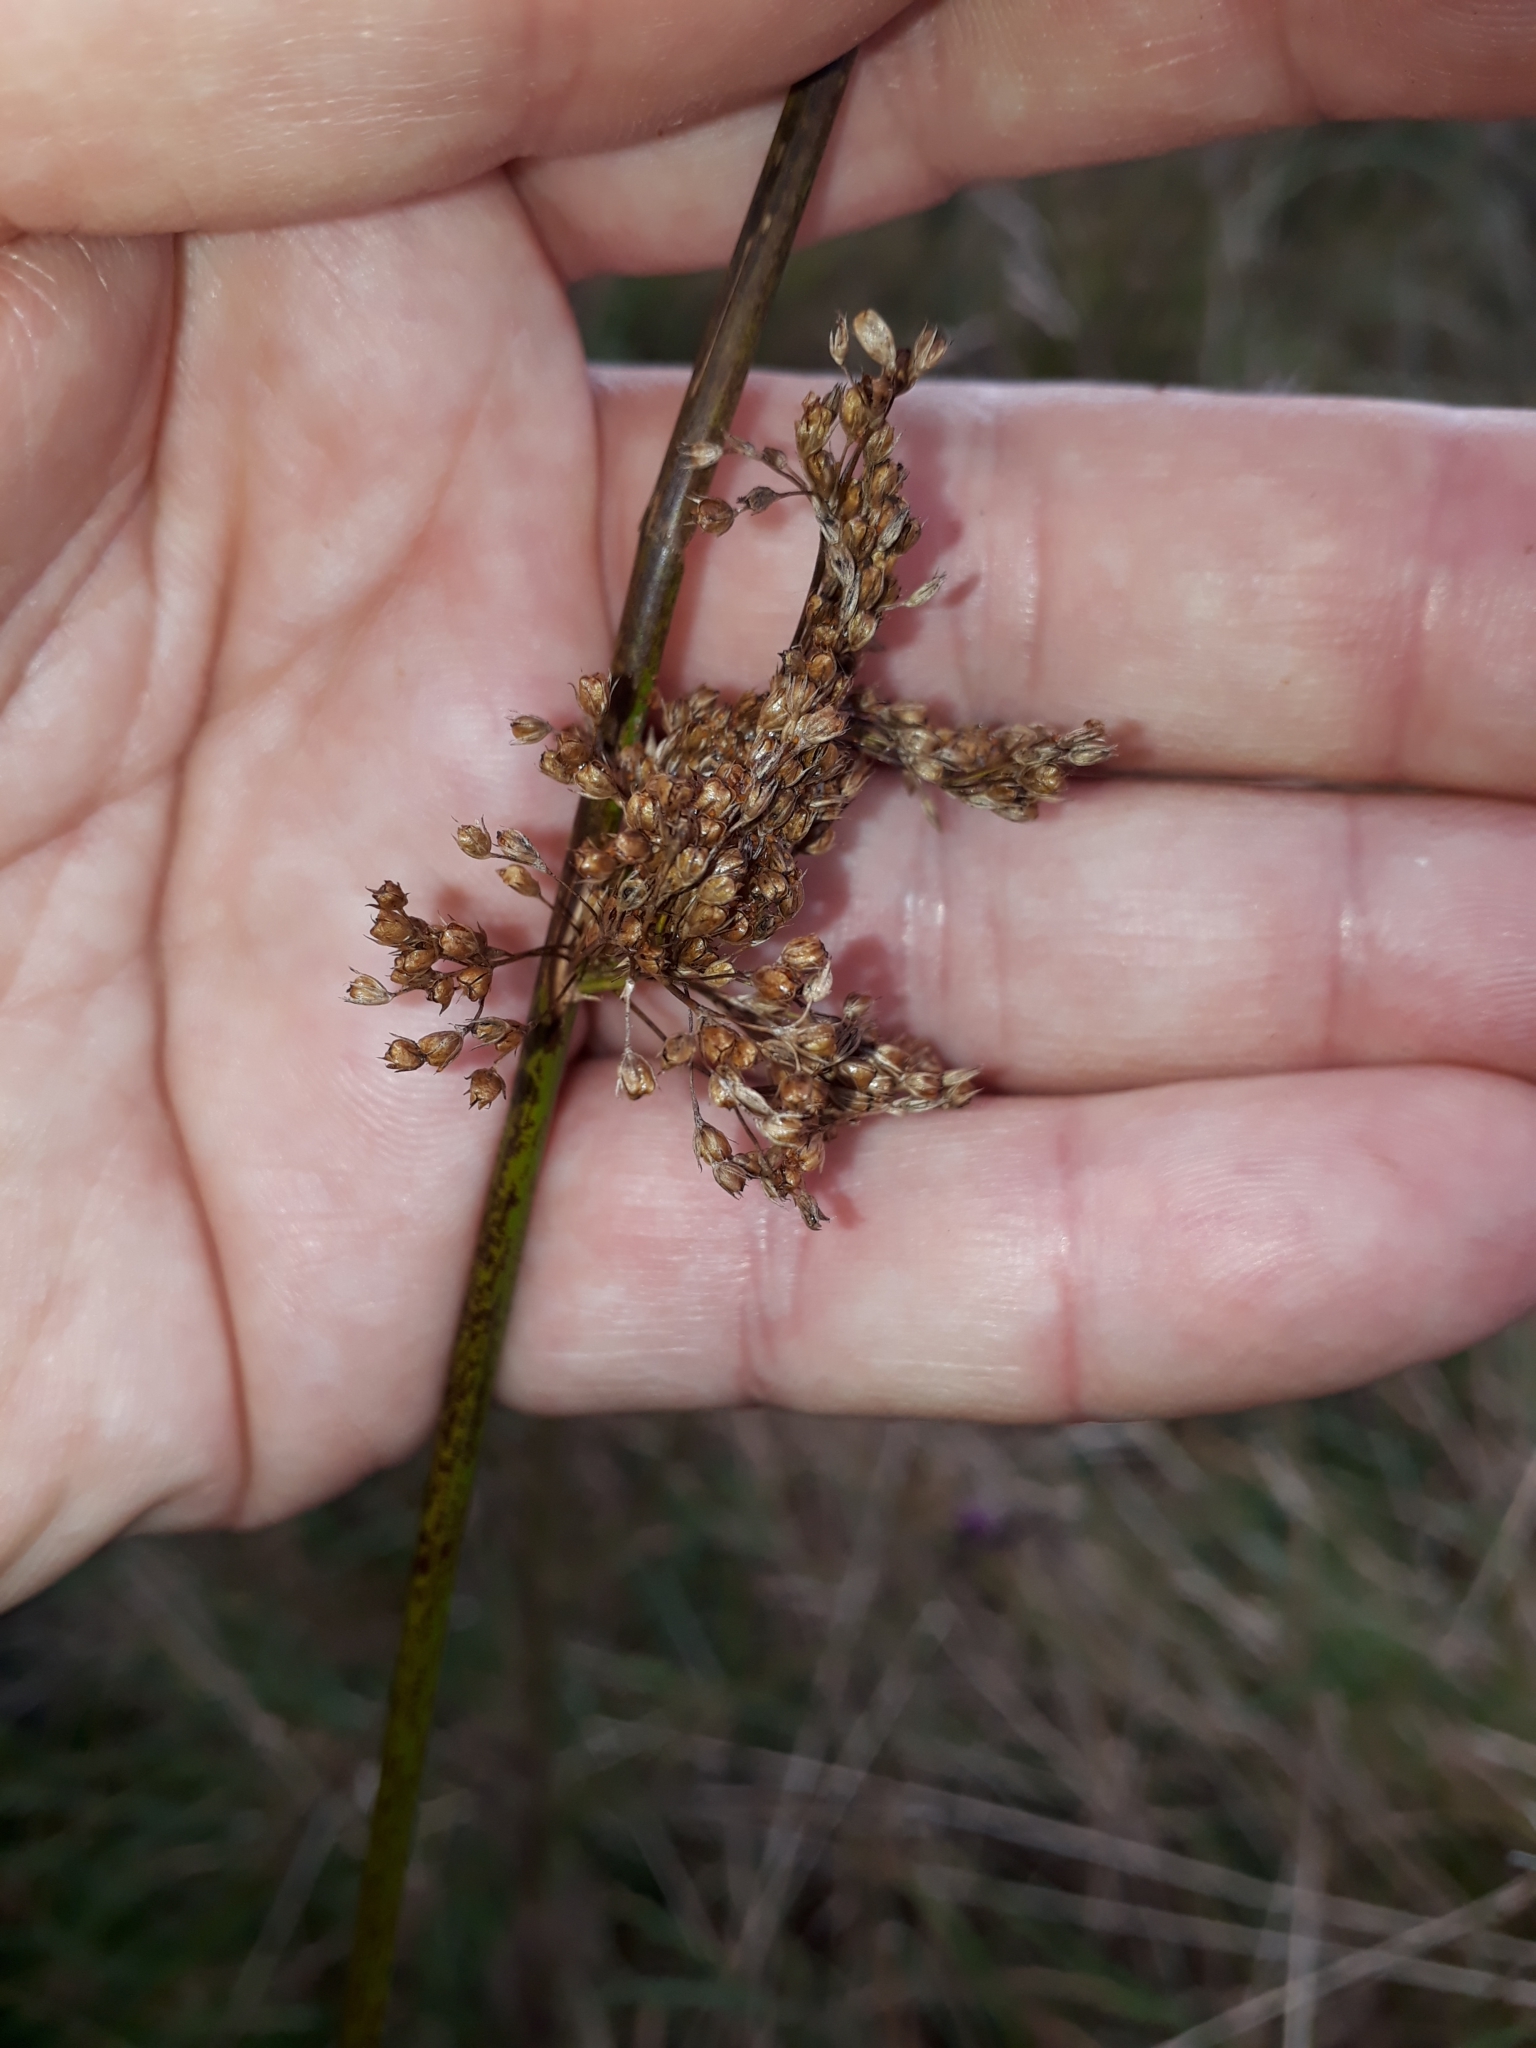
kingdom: Plantae
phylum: Tracheophyta
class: Liliopsida
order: Poales
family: Juncaceae
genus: Juncus
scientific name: Juncus effusus
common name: Soft rush
